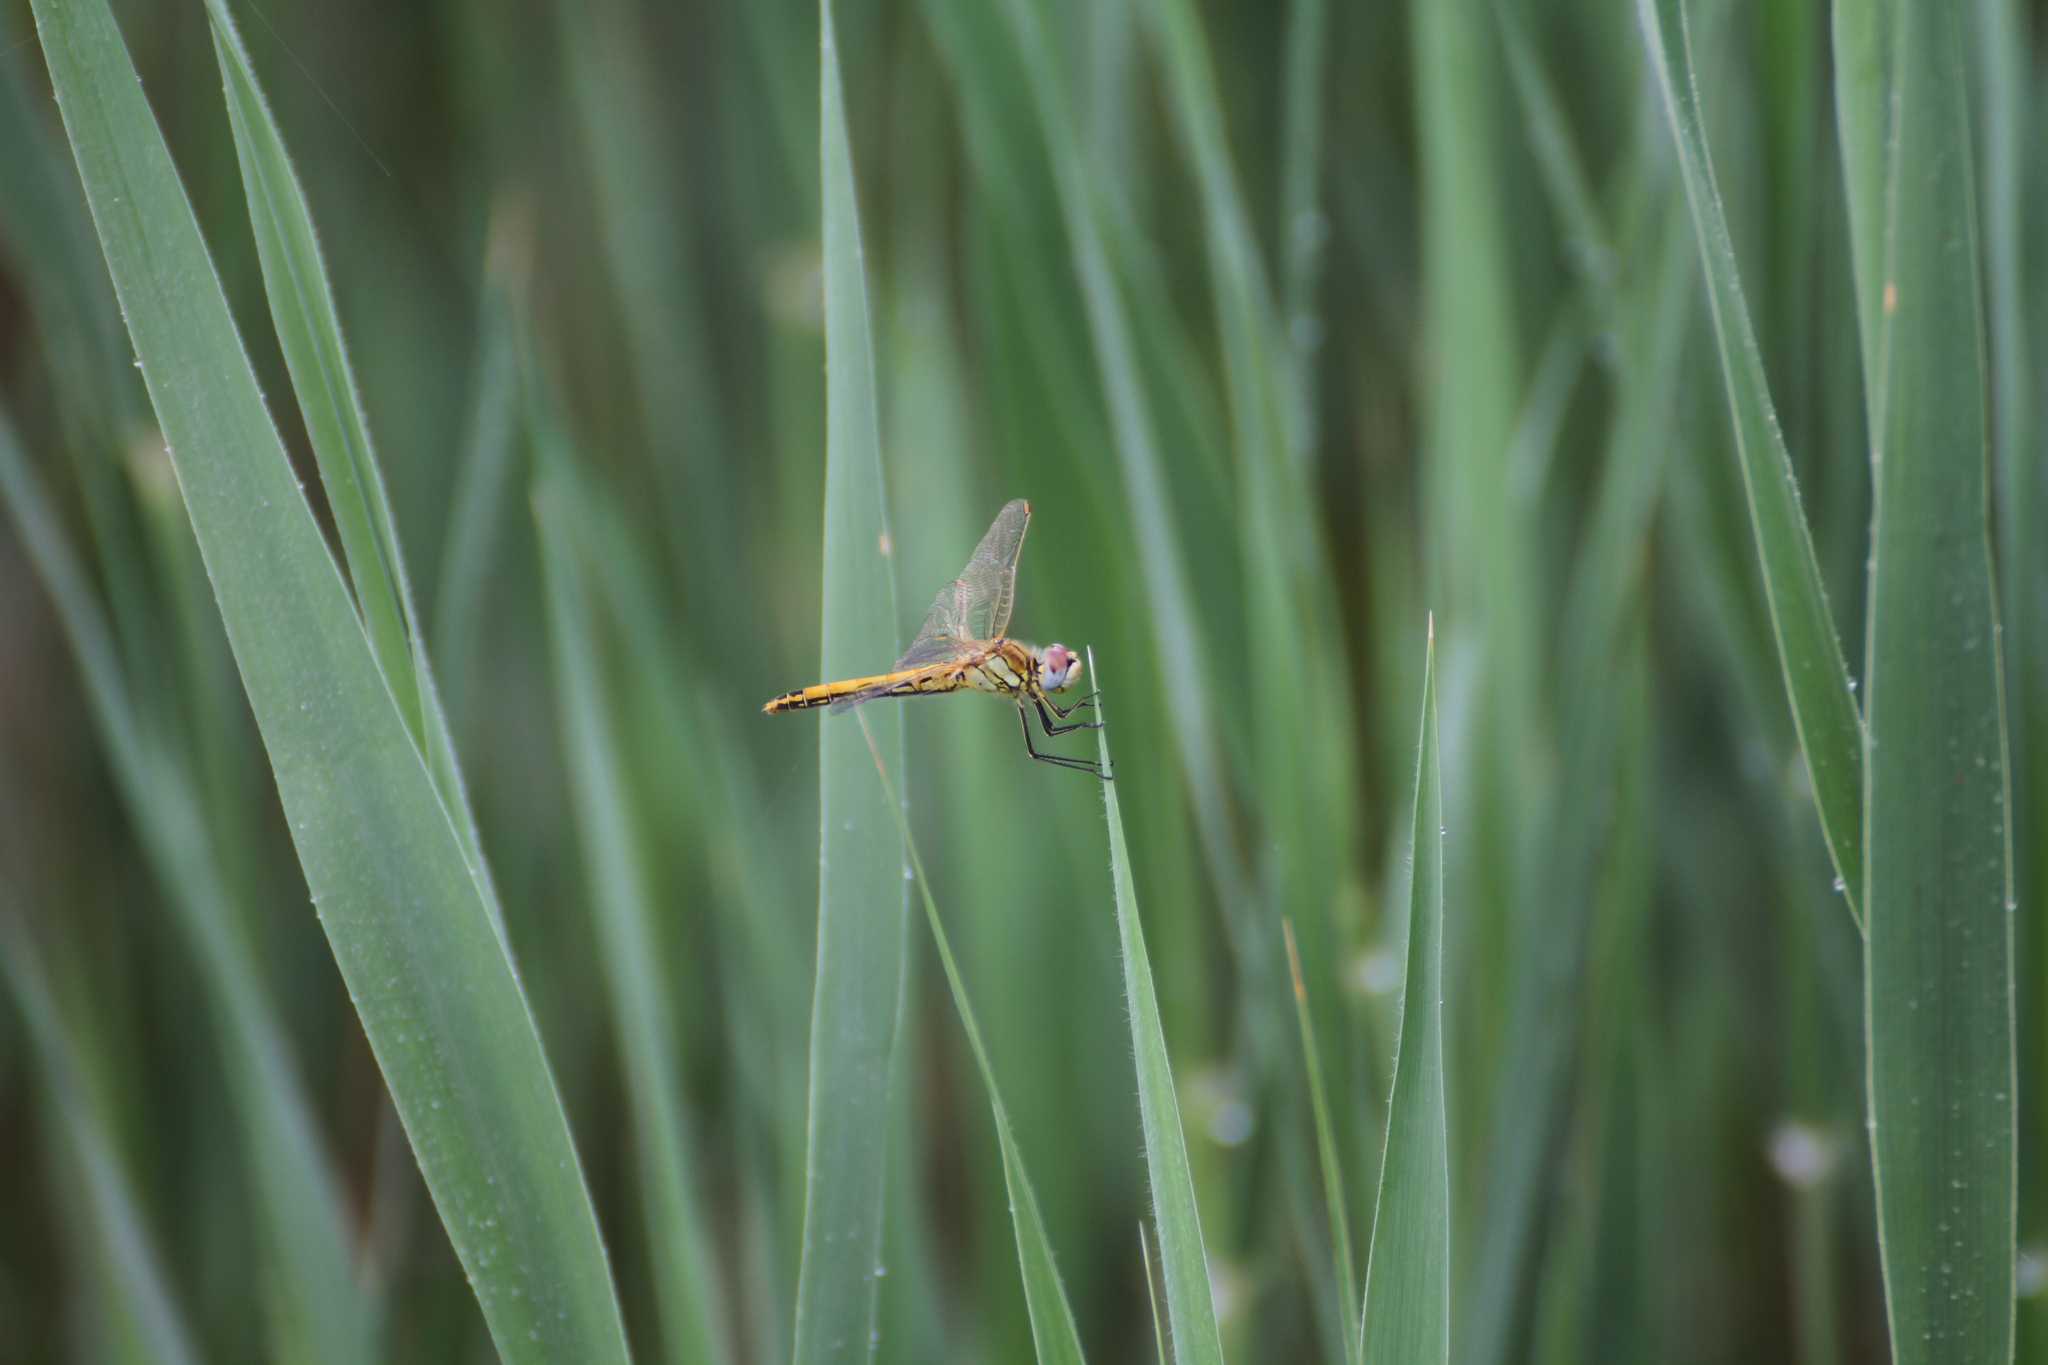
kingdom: Animalia
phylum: Arthropoda
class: Insecta
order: Odonata
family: Libellulidae
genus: Sympetrum
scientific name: Sympetrum fonscolombii
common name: Red-veined darter
